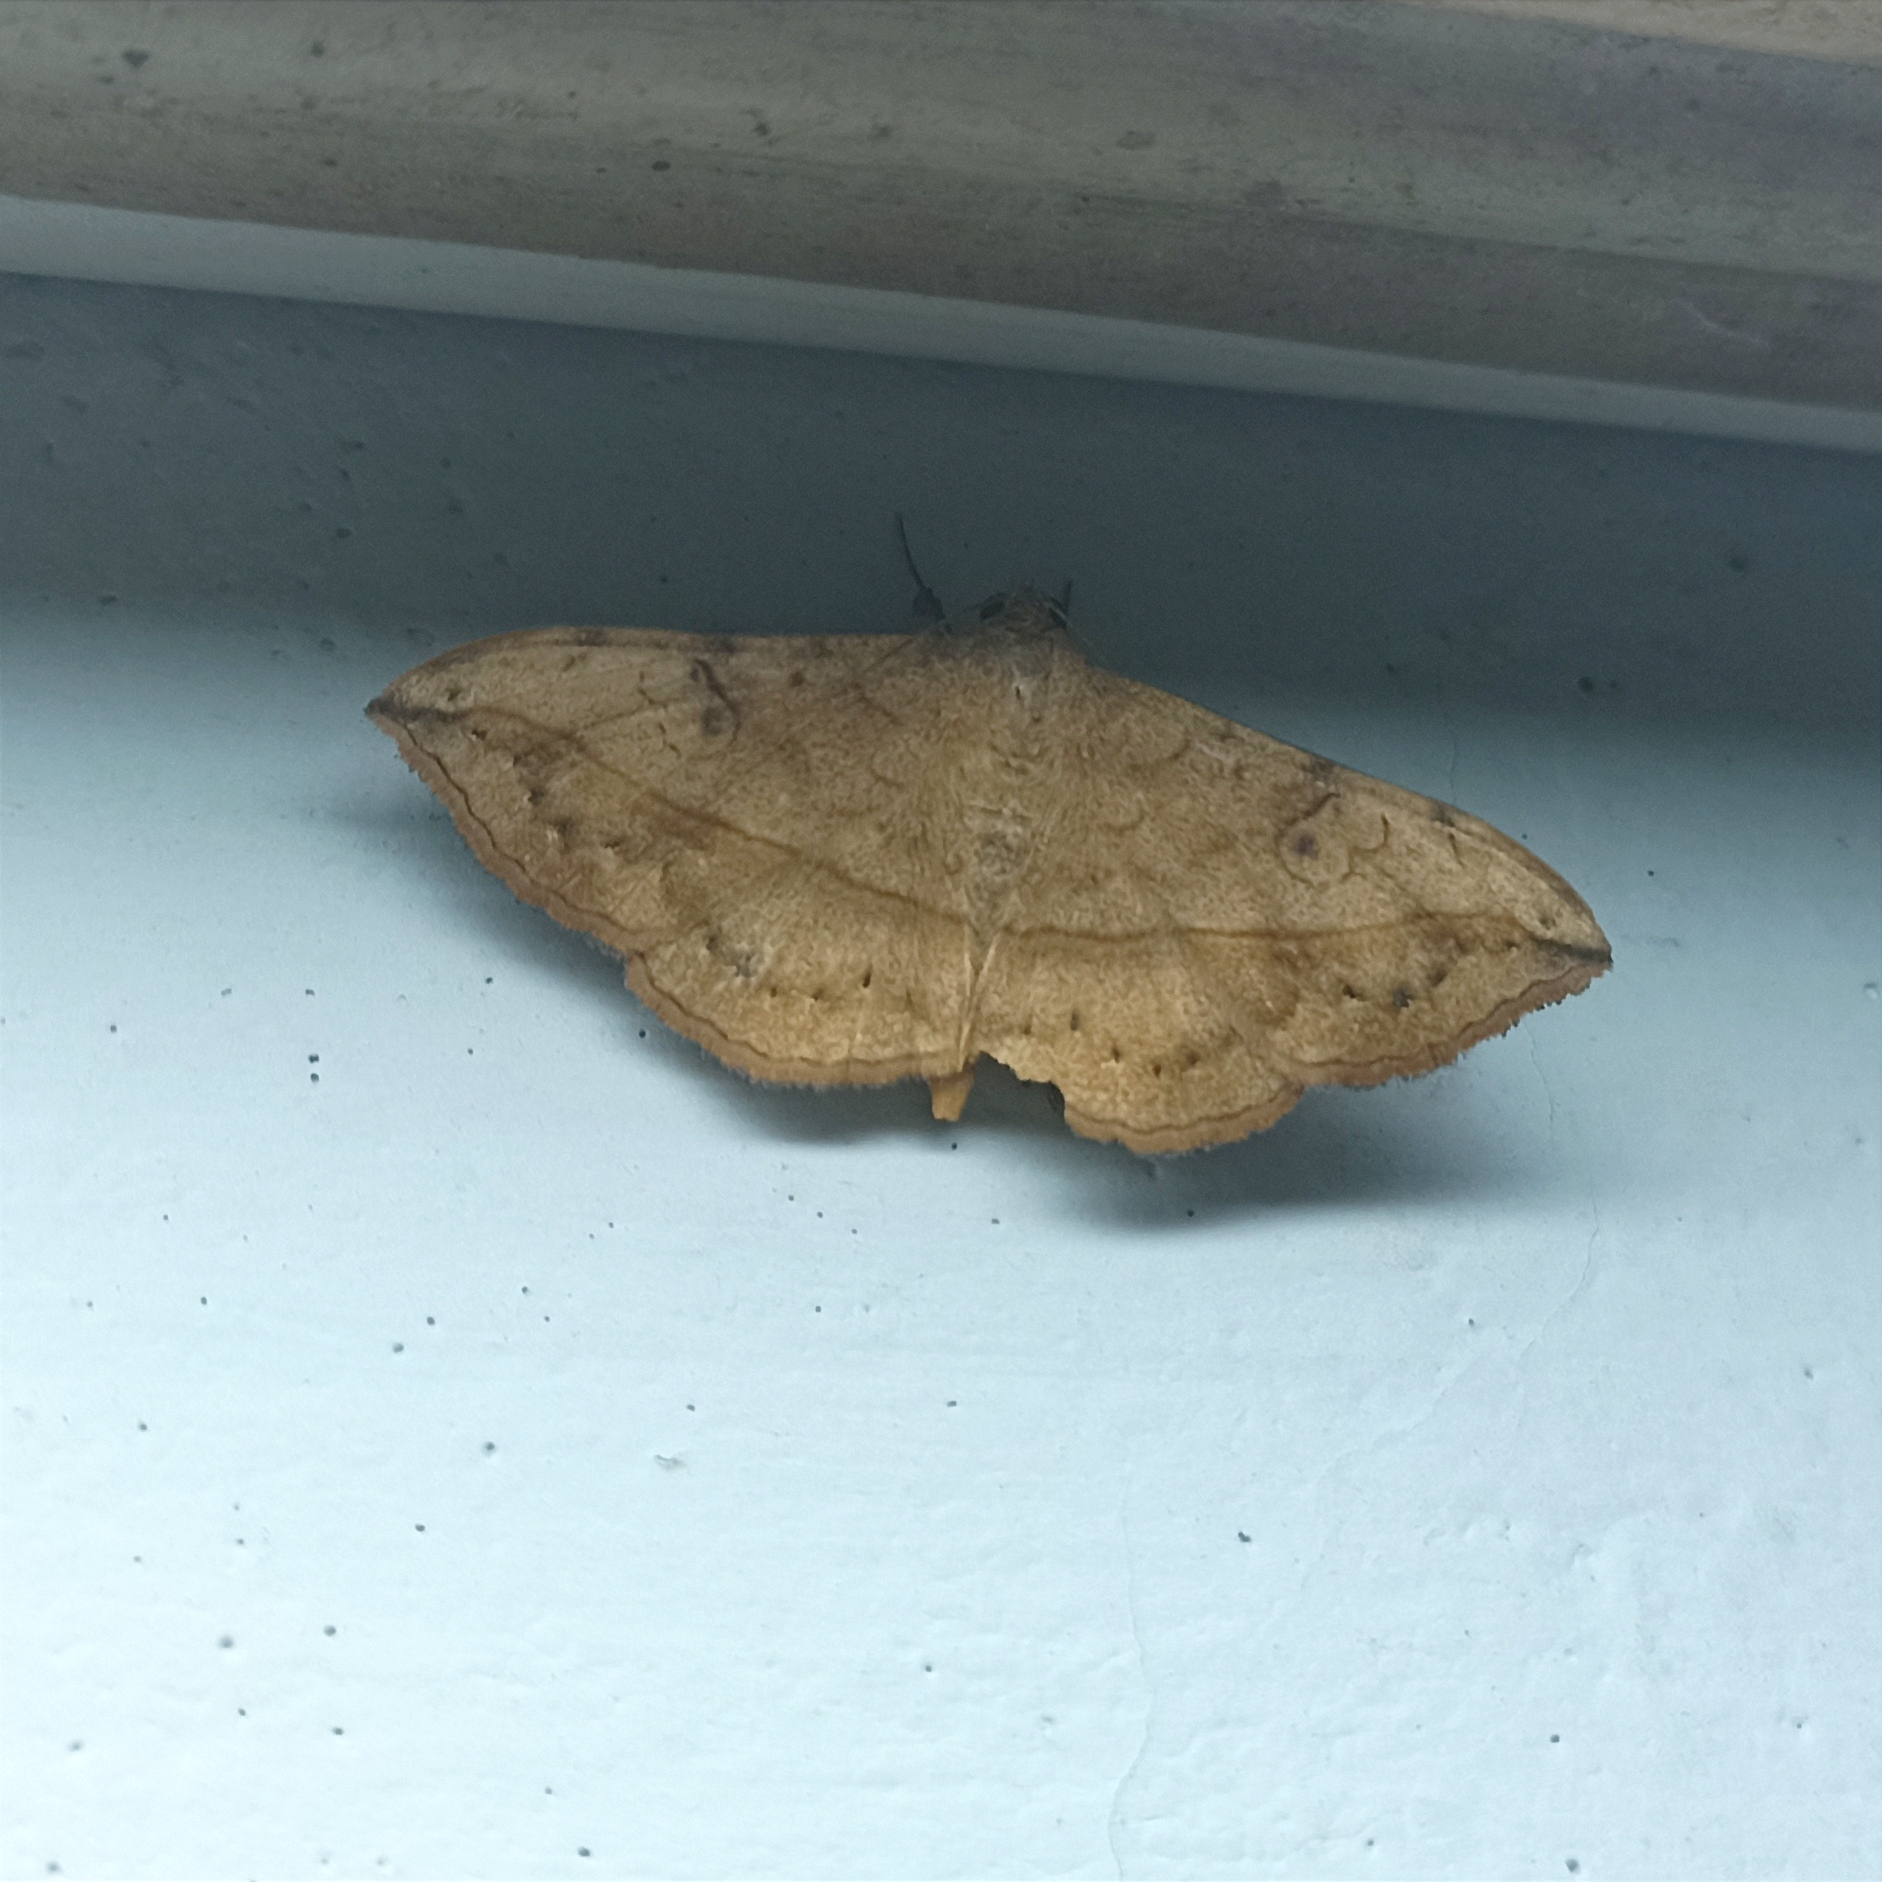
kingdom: Animalia
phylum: Arthropoda
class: Insecta
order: Lepidoptera
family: Erebidae
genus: Anticarsia
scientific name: Anticarsia irrorata
